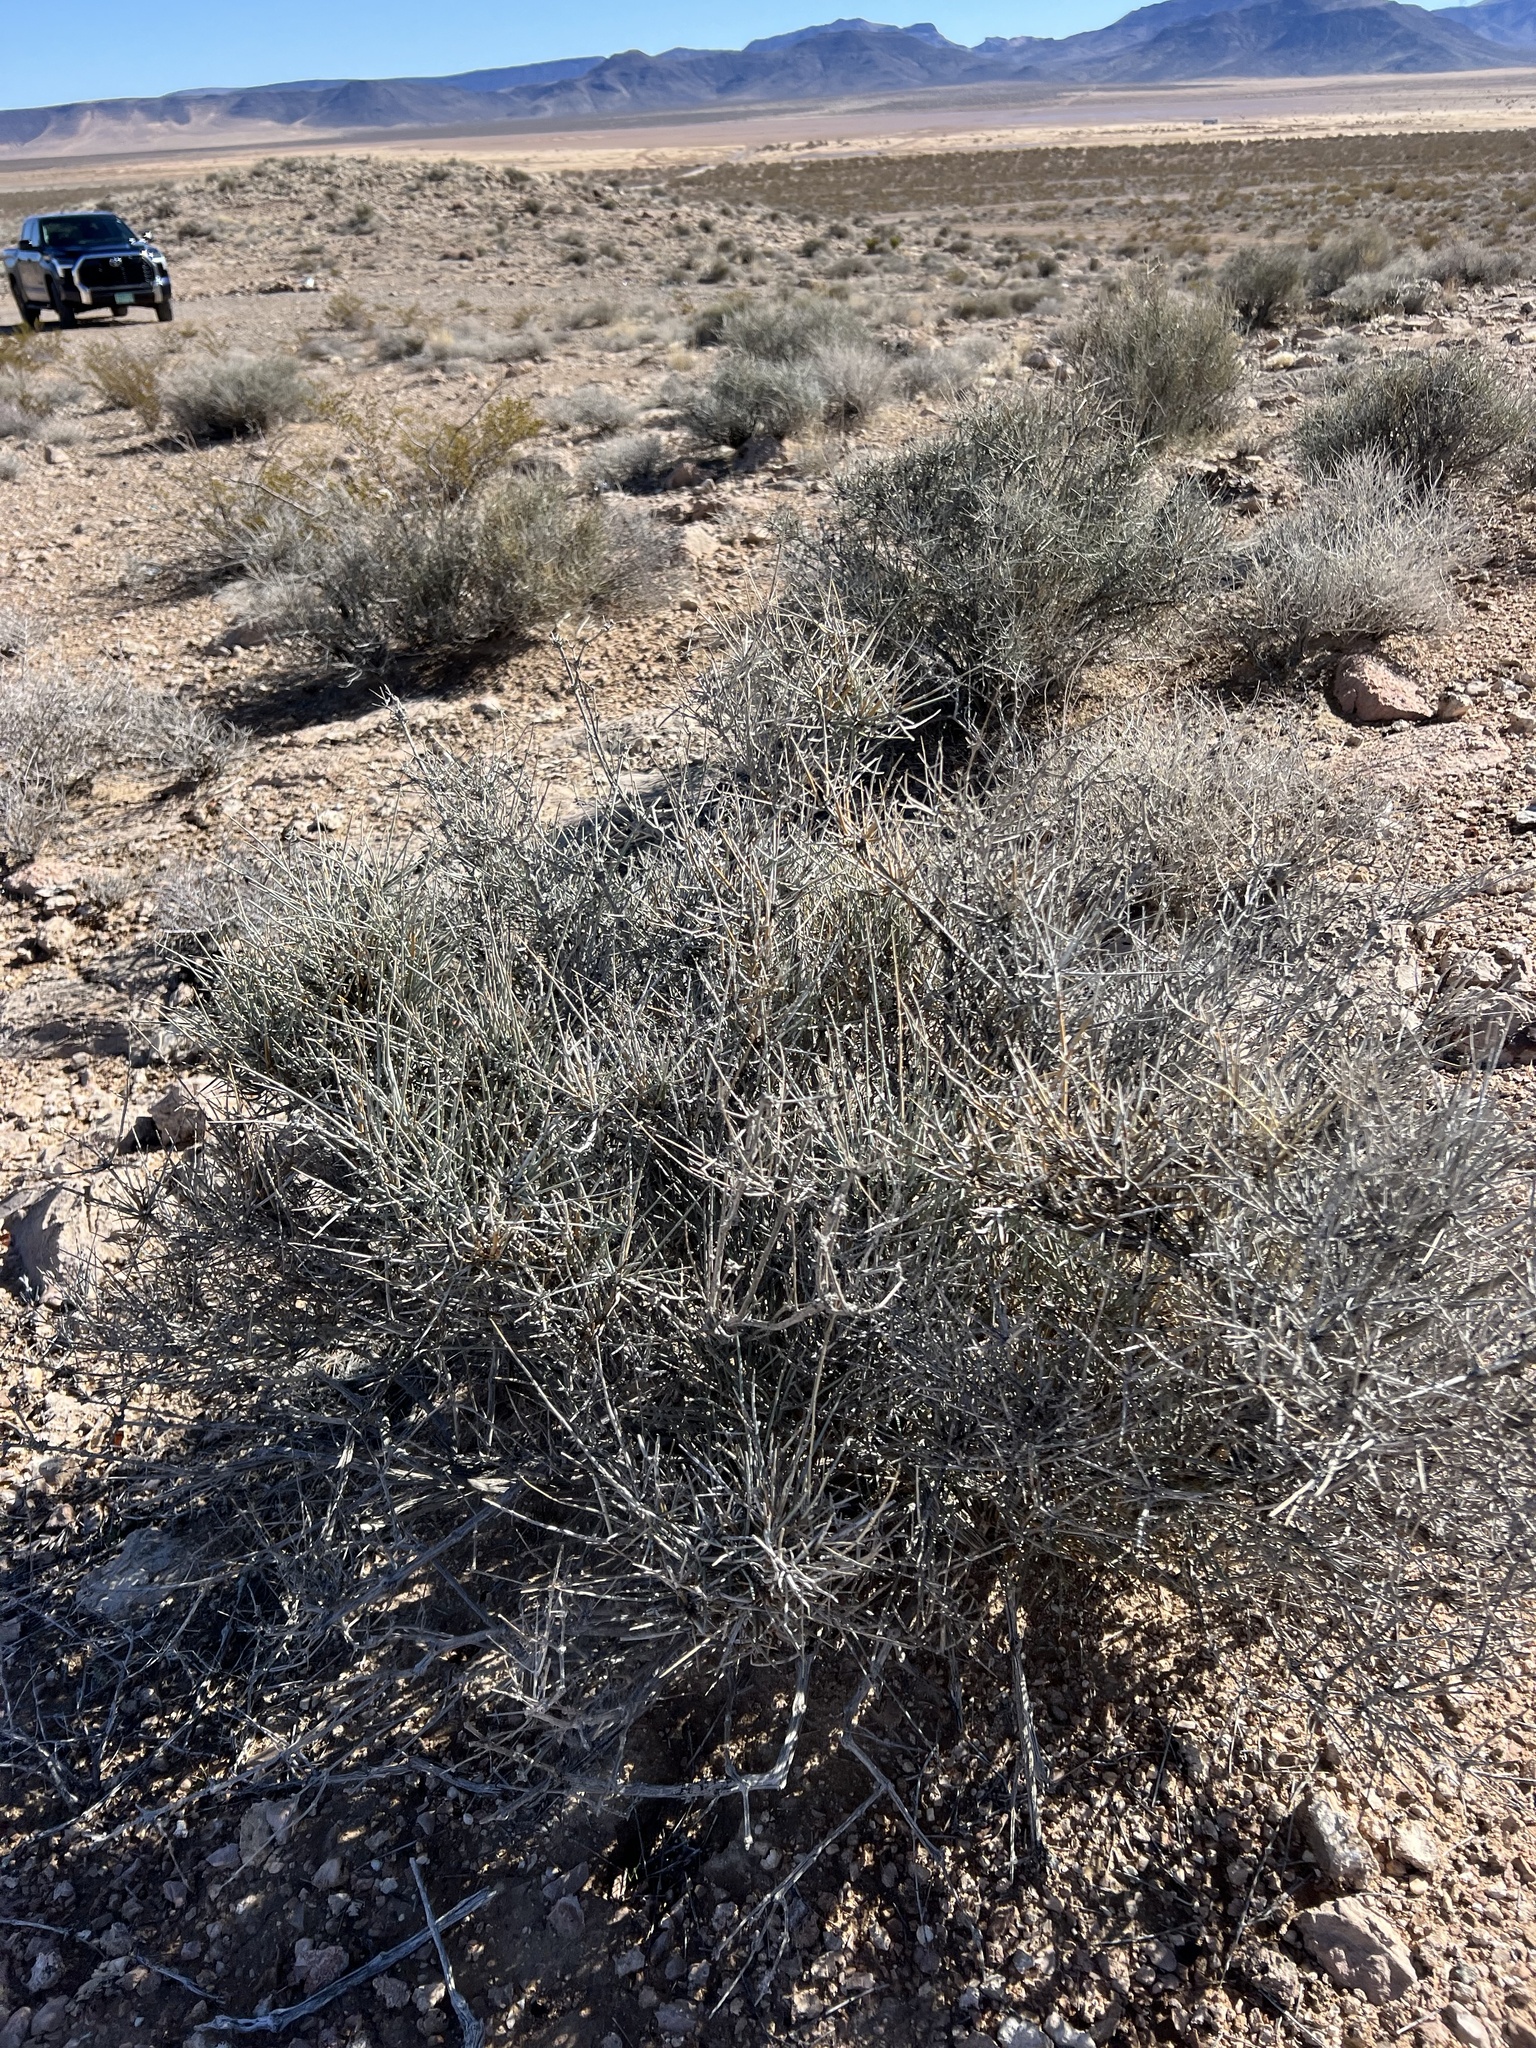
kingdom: Plantae
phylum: Tracheophyta
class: Gnetopsida
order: Ephedrales
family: Ephedraceae
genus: Ephedra
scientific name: Ephedra nevadensis
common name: Gray ephedra
